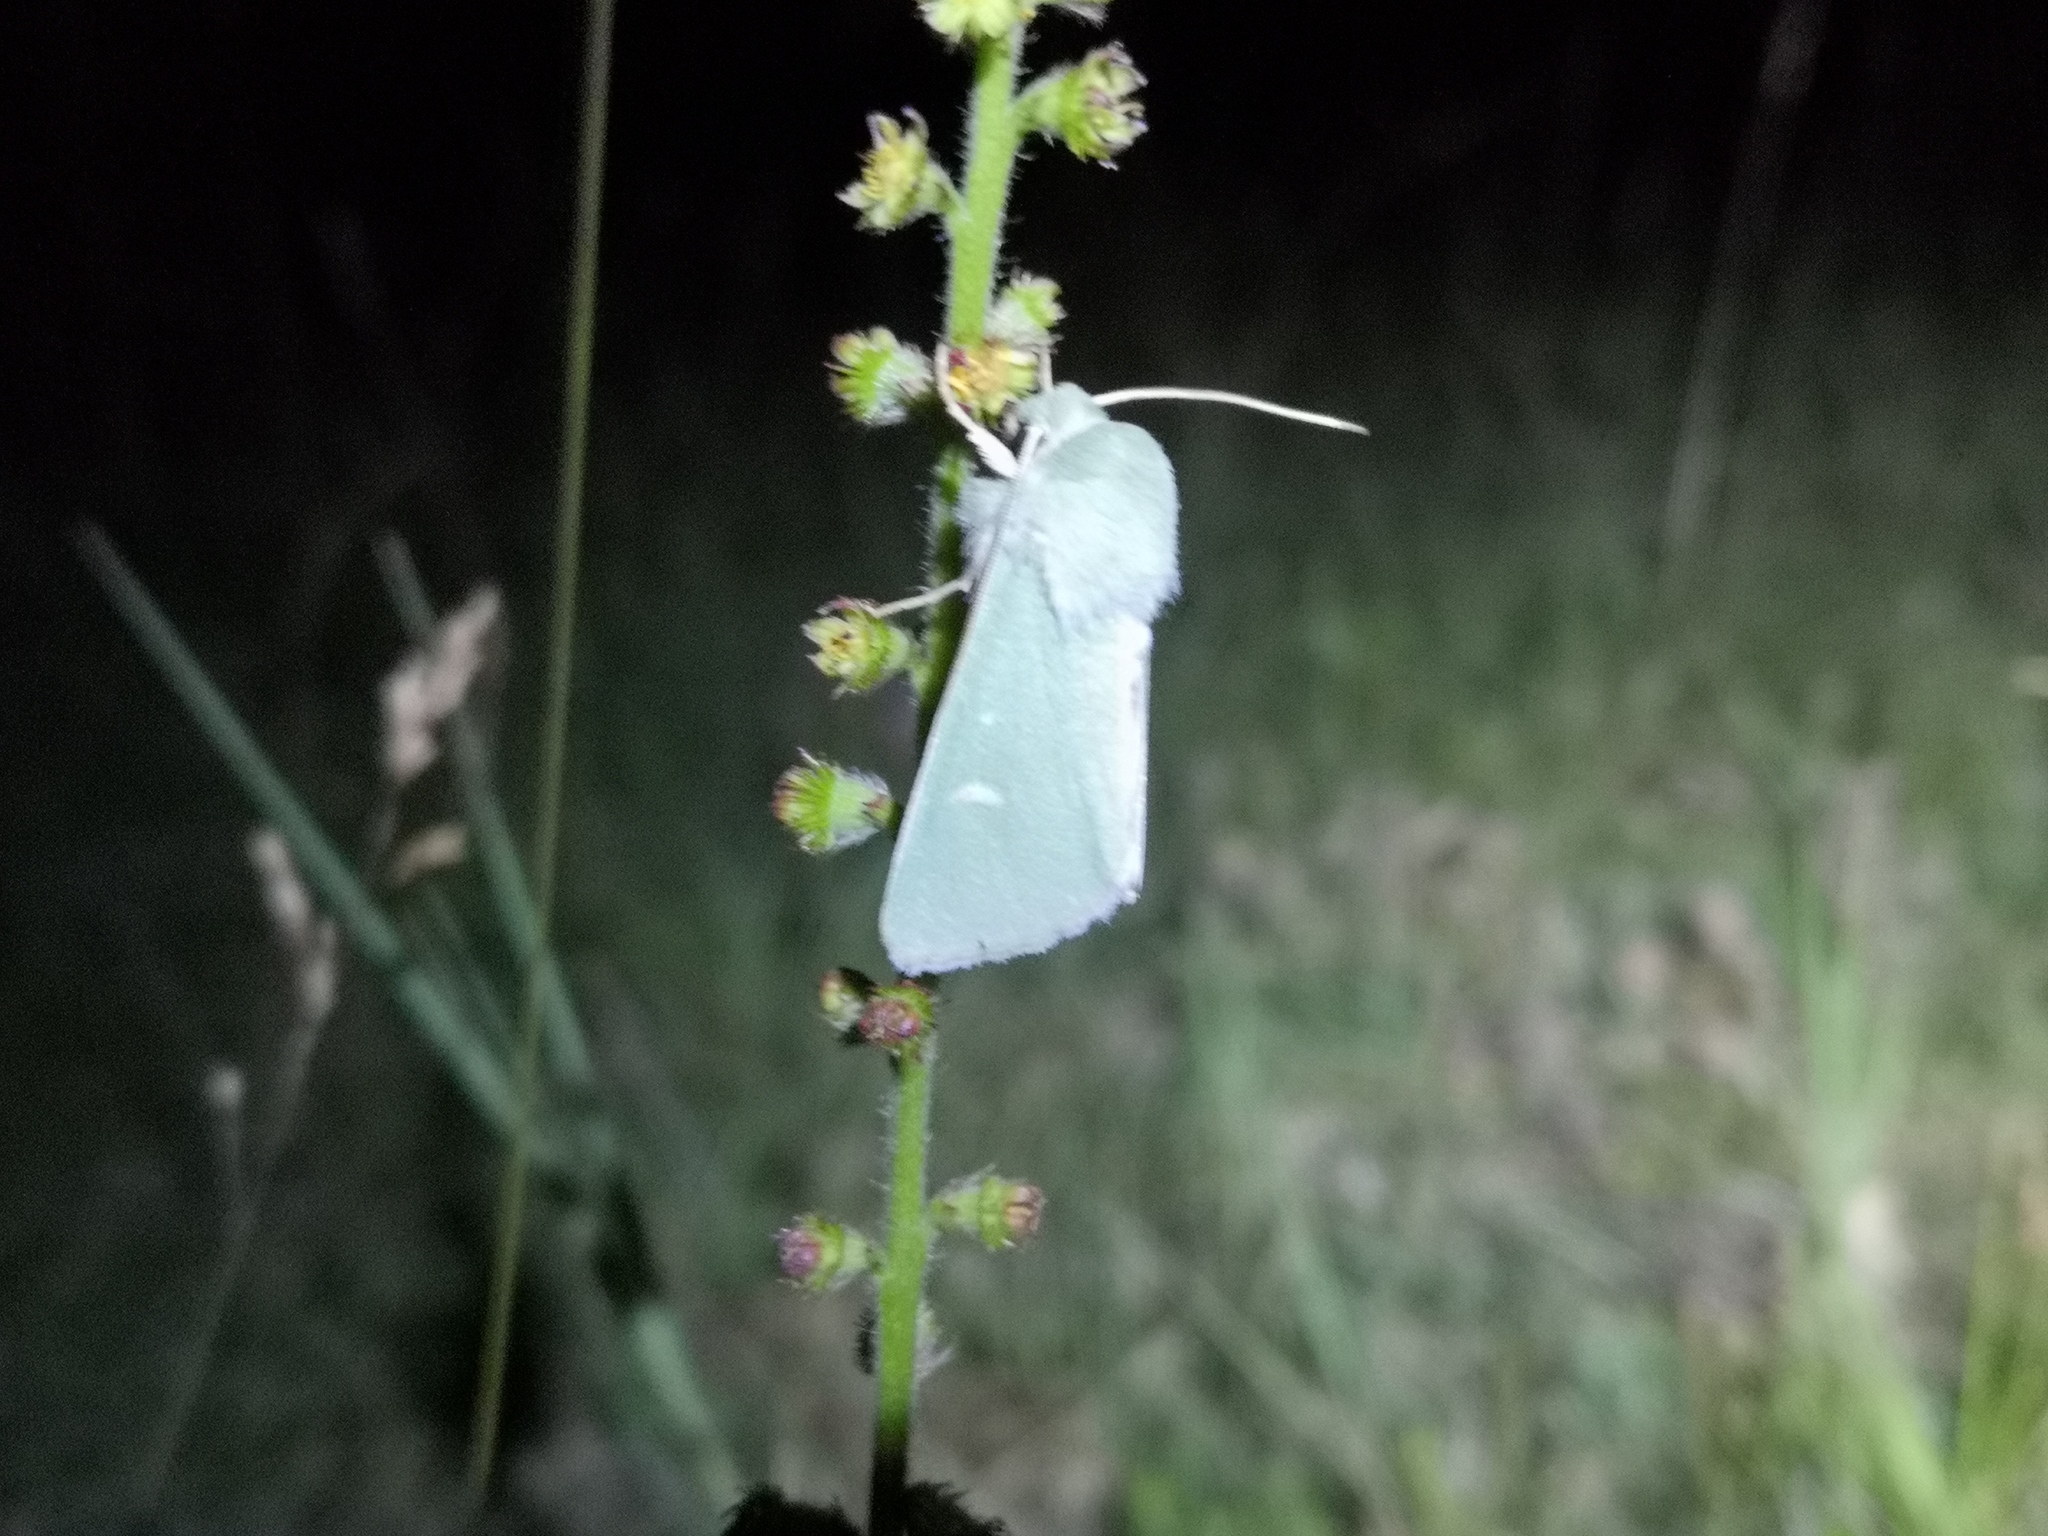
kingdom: Animalia
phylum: Arthropoda
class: Insecta
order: Lepidoptera
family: Noctuidae
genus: Calamia
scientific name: Calamia tridens
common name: Burren green
